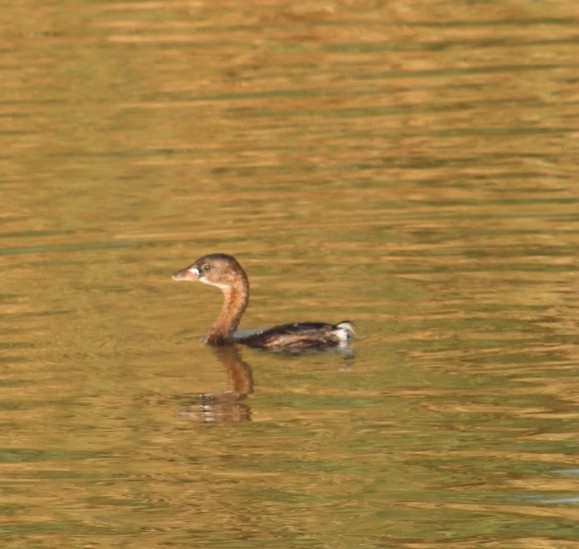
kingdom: Animalia
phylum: Chordata
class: Aves
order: Podicipediformes
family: Podicipedidae
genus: Podilymbus
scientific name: Podilymbus podiceps
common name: Pied-billed grebe
